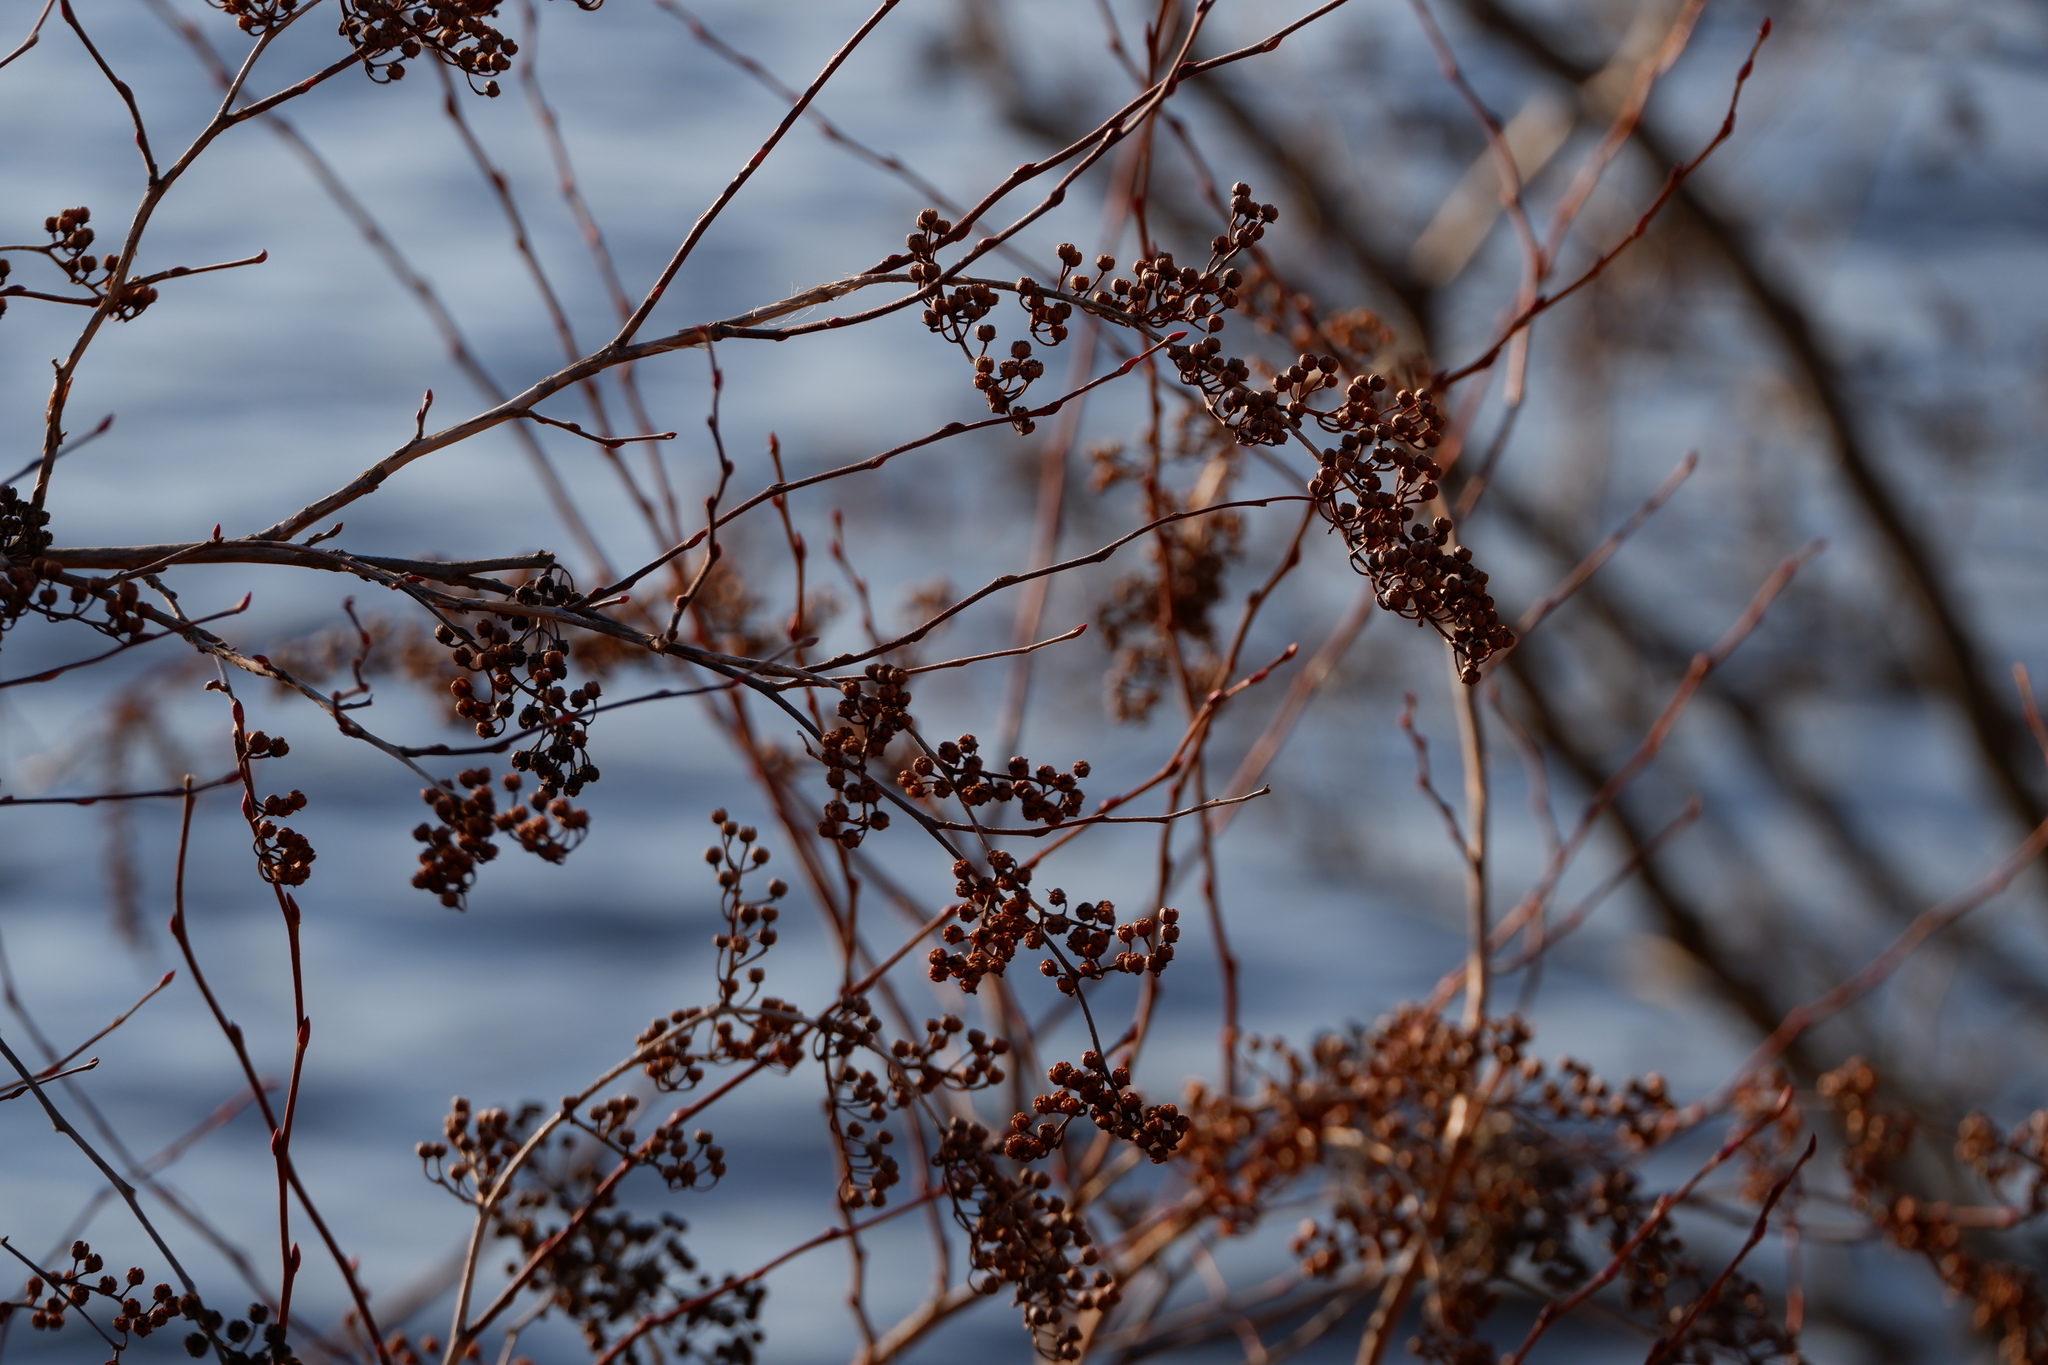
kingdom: Plantae
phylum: Tracheophyta
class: Magnoliopsida
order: Ericales
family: Ericaceae
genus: Lyonia
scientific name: Lyonia ligustrina
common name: Maleberry
